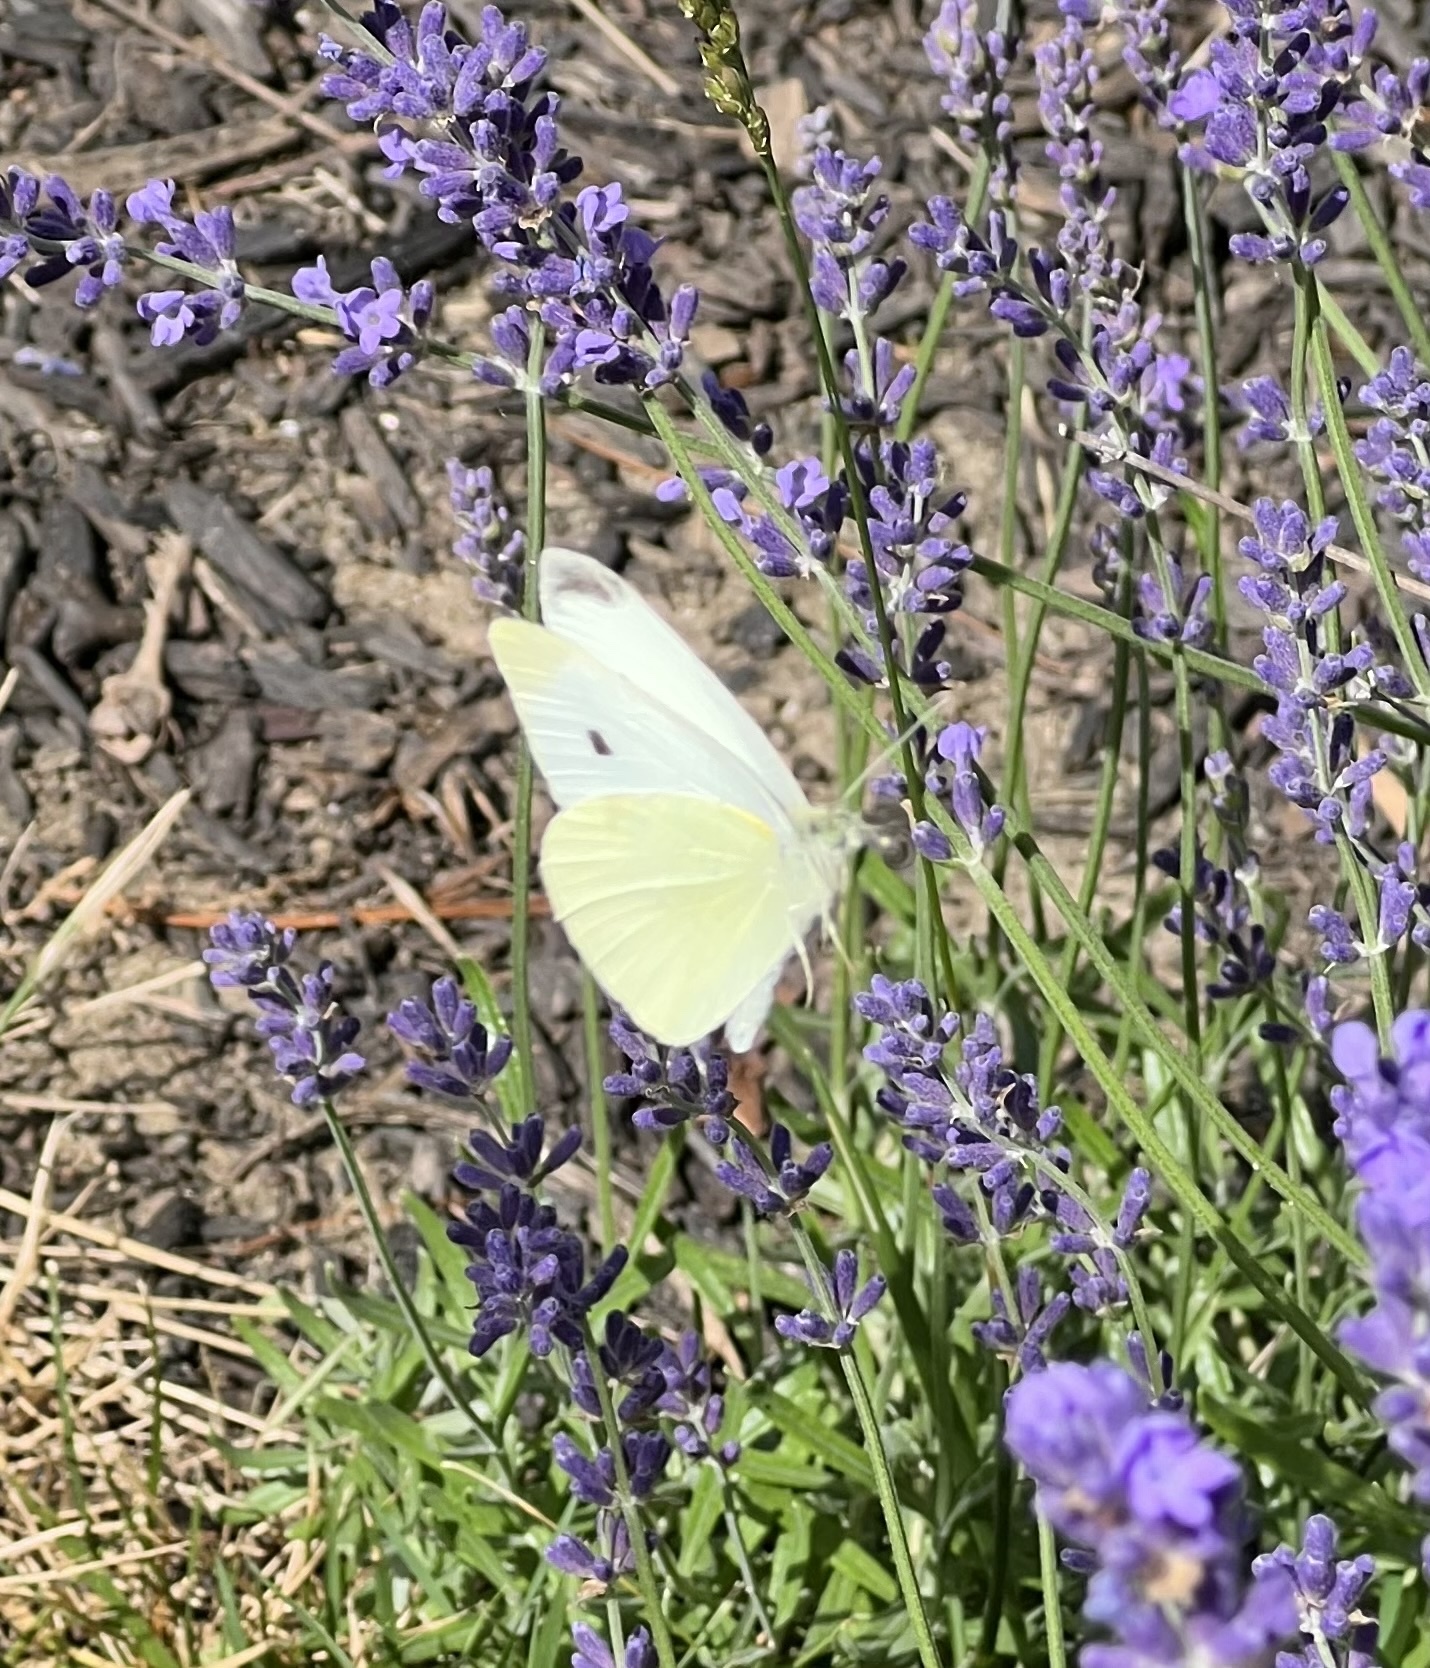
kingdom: Animalia
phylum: Arthropoda
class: Insecta
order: Lepidoptera
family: Pieridae
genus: Pieris
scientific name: Pieris rapae
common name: Small white
